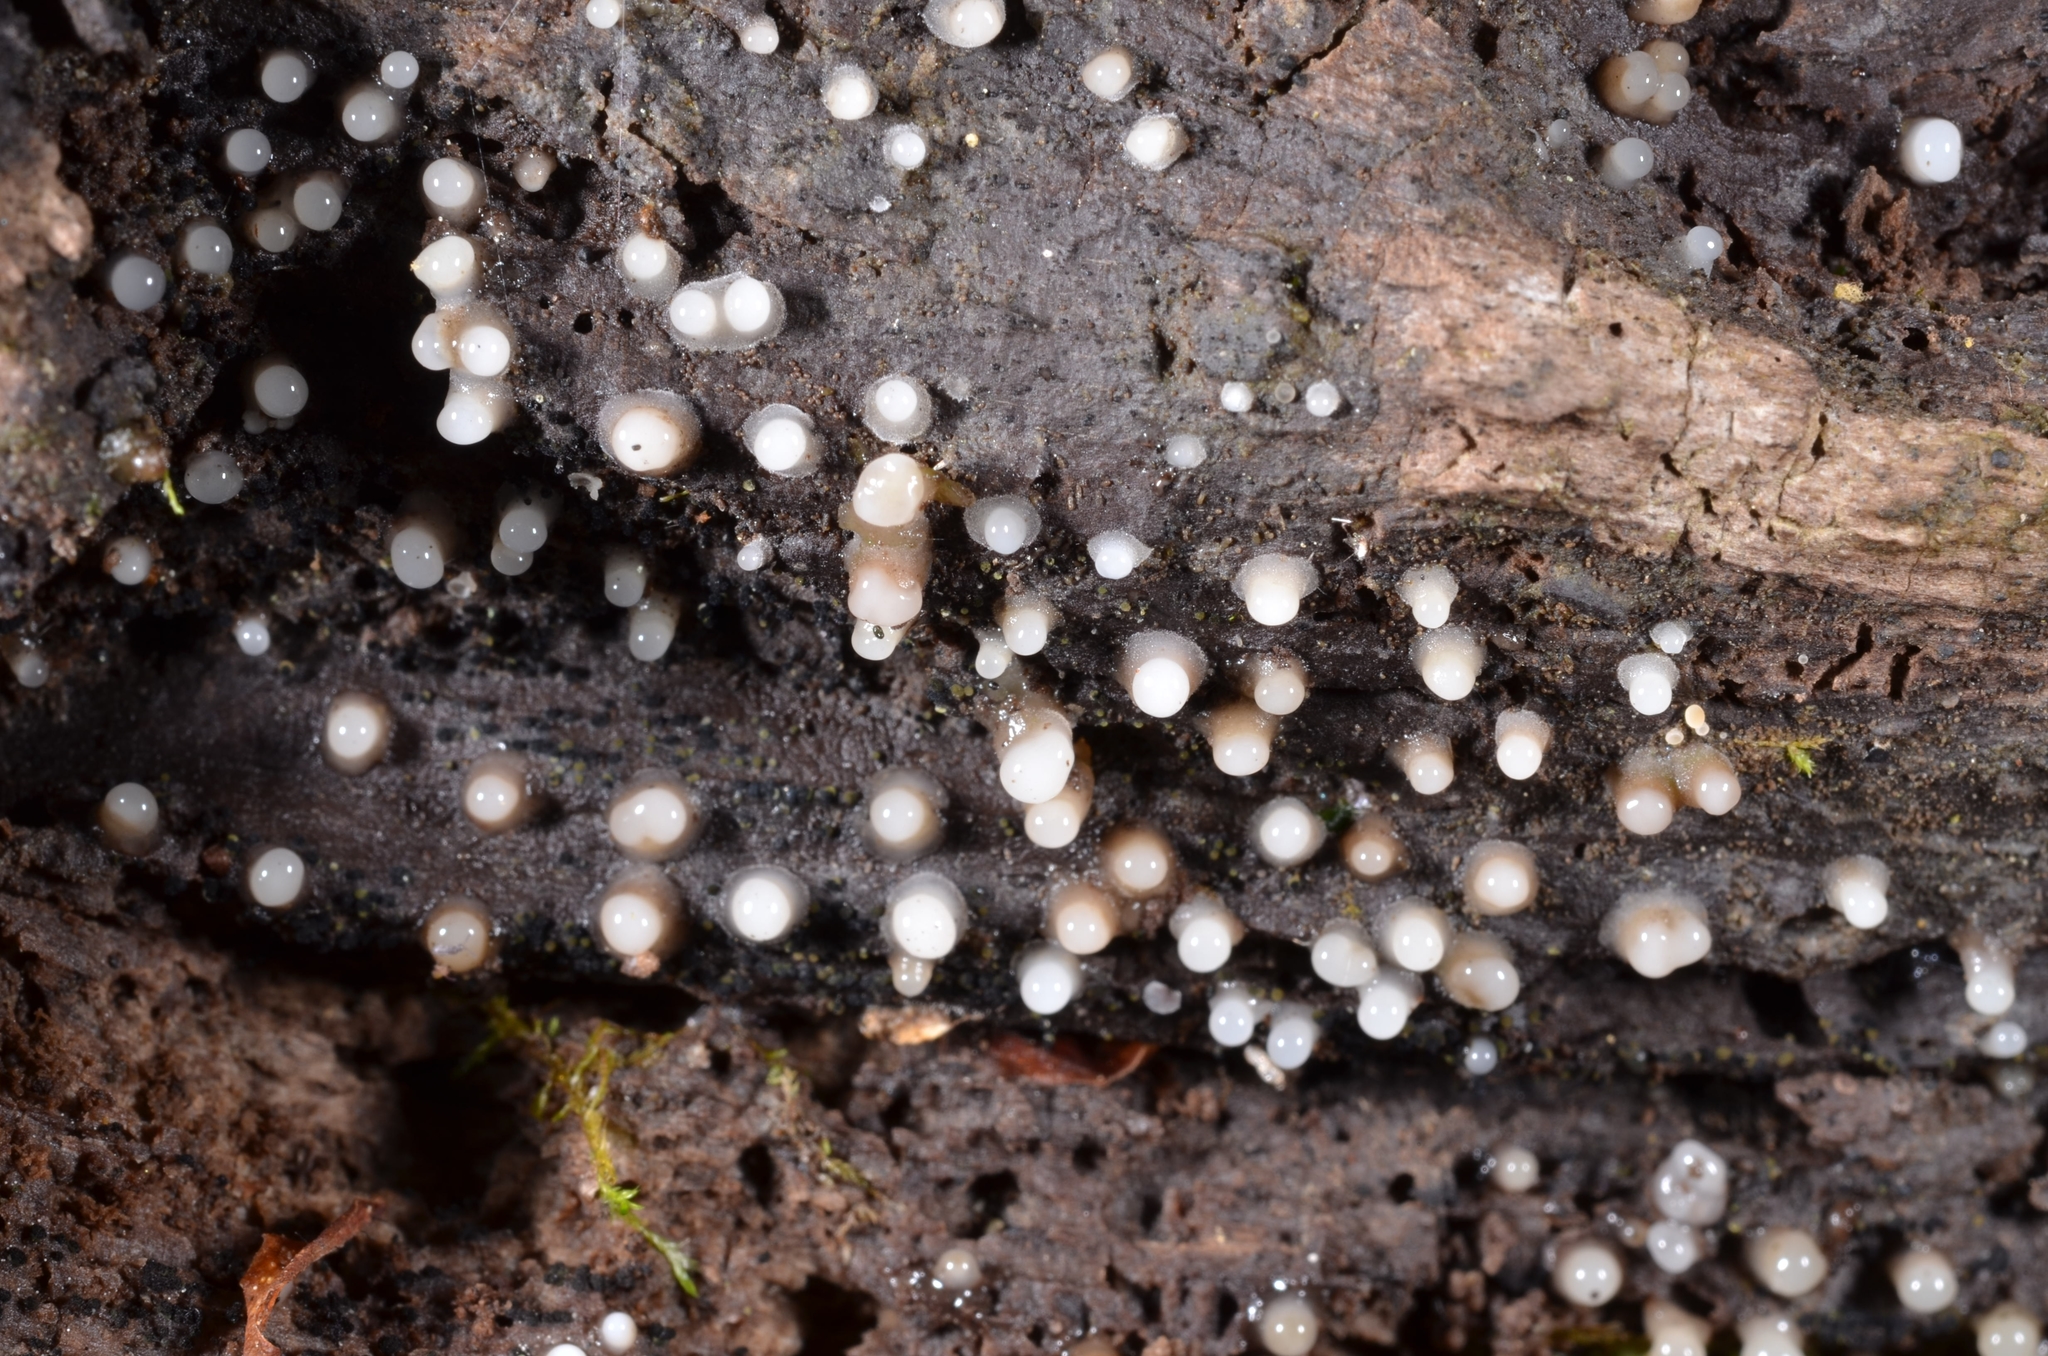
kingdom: Fungi
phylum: Basidiomycota
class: Atractiellomycetes
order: Atractiellales
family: Phleogenaceae
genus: Helicogloea
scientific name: Helicogloea compressa
